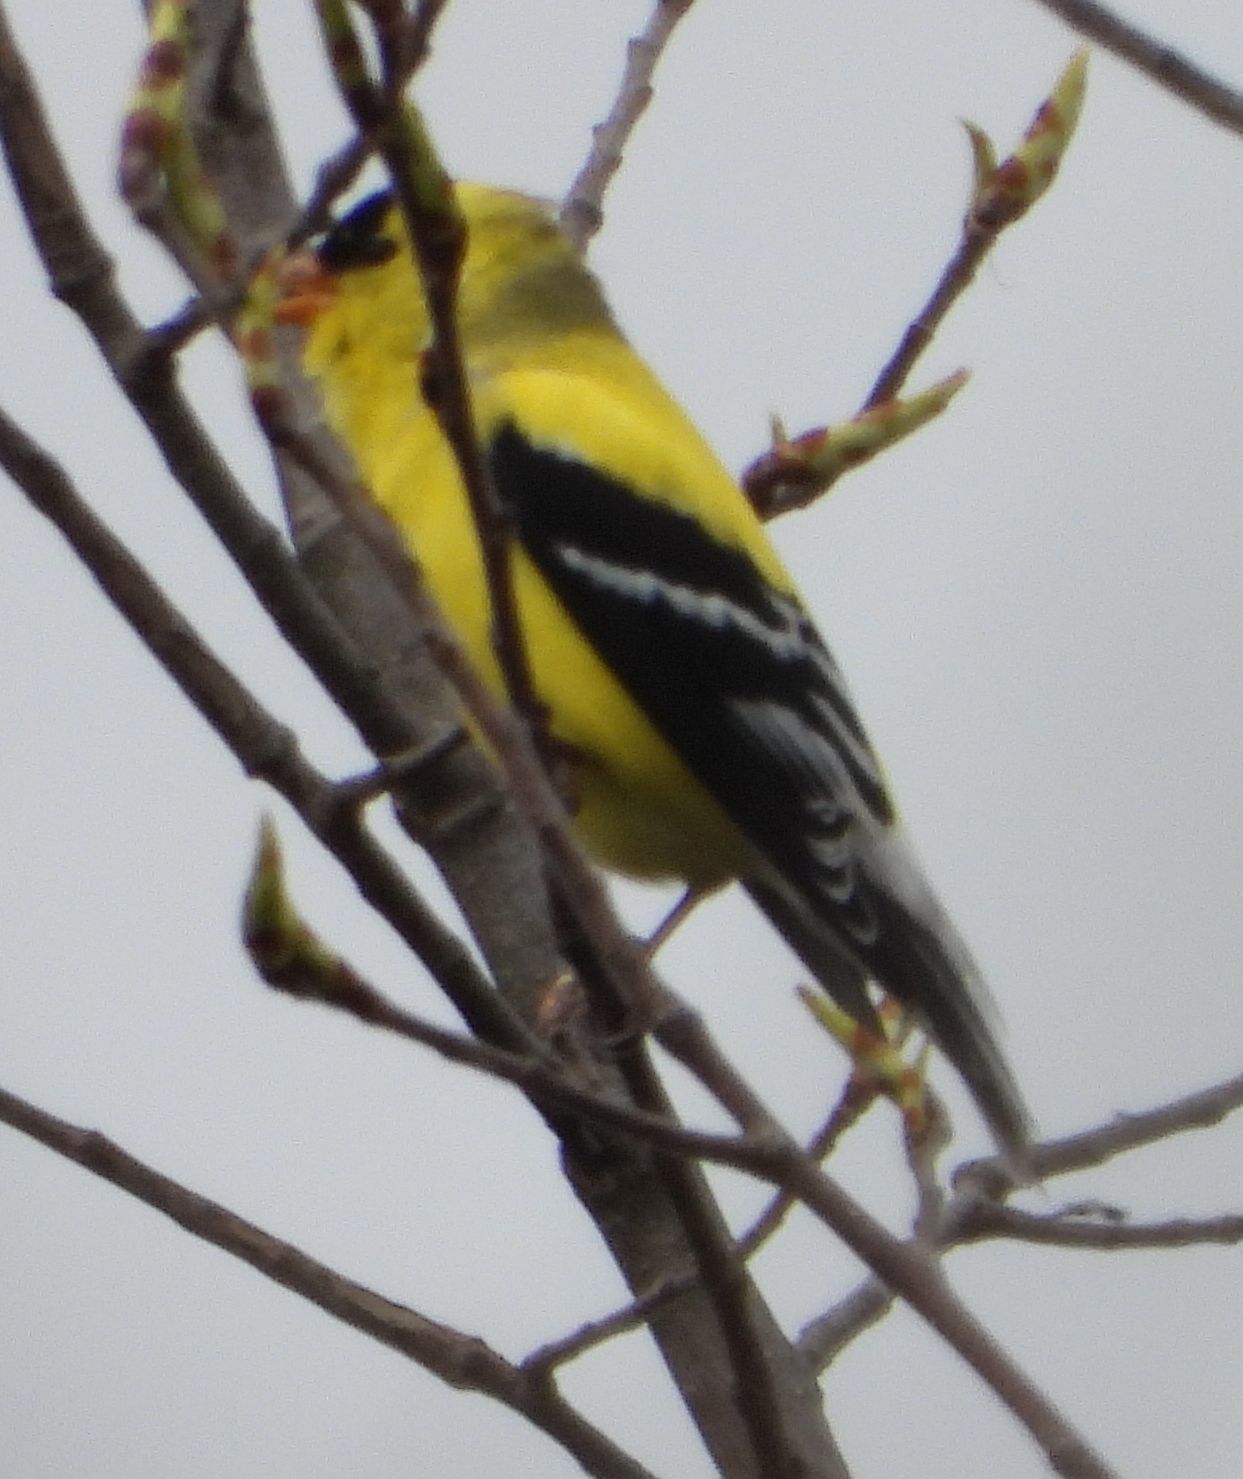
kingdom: Animalia
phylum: Chordata
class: Aves
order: Passeriformes
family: Fringillidae
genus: Spinus
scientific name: Spinus tristis
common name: American goldfinch
